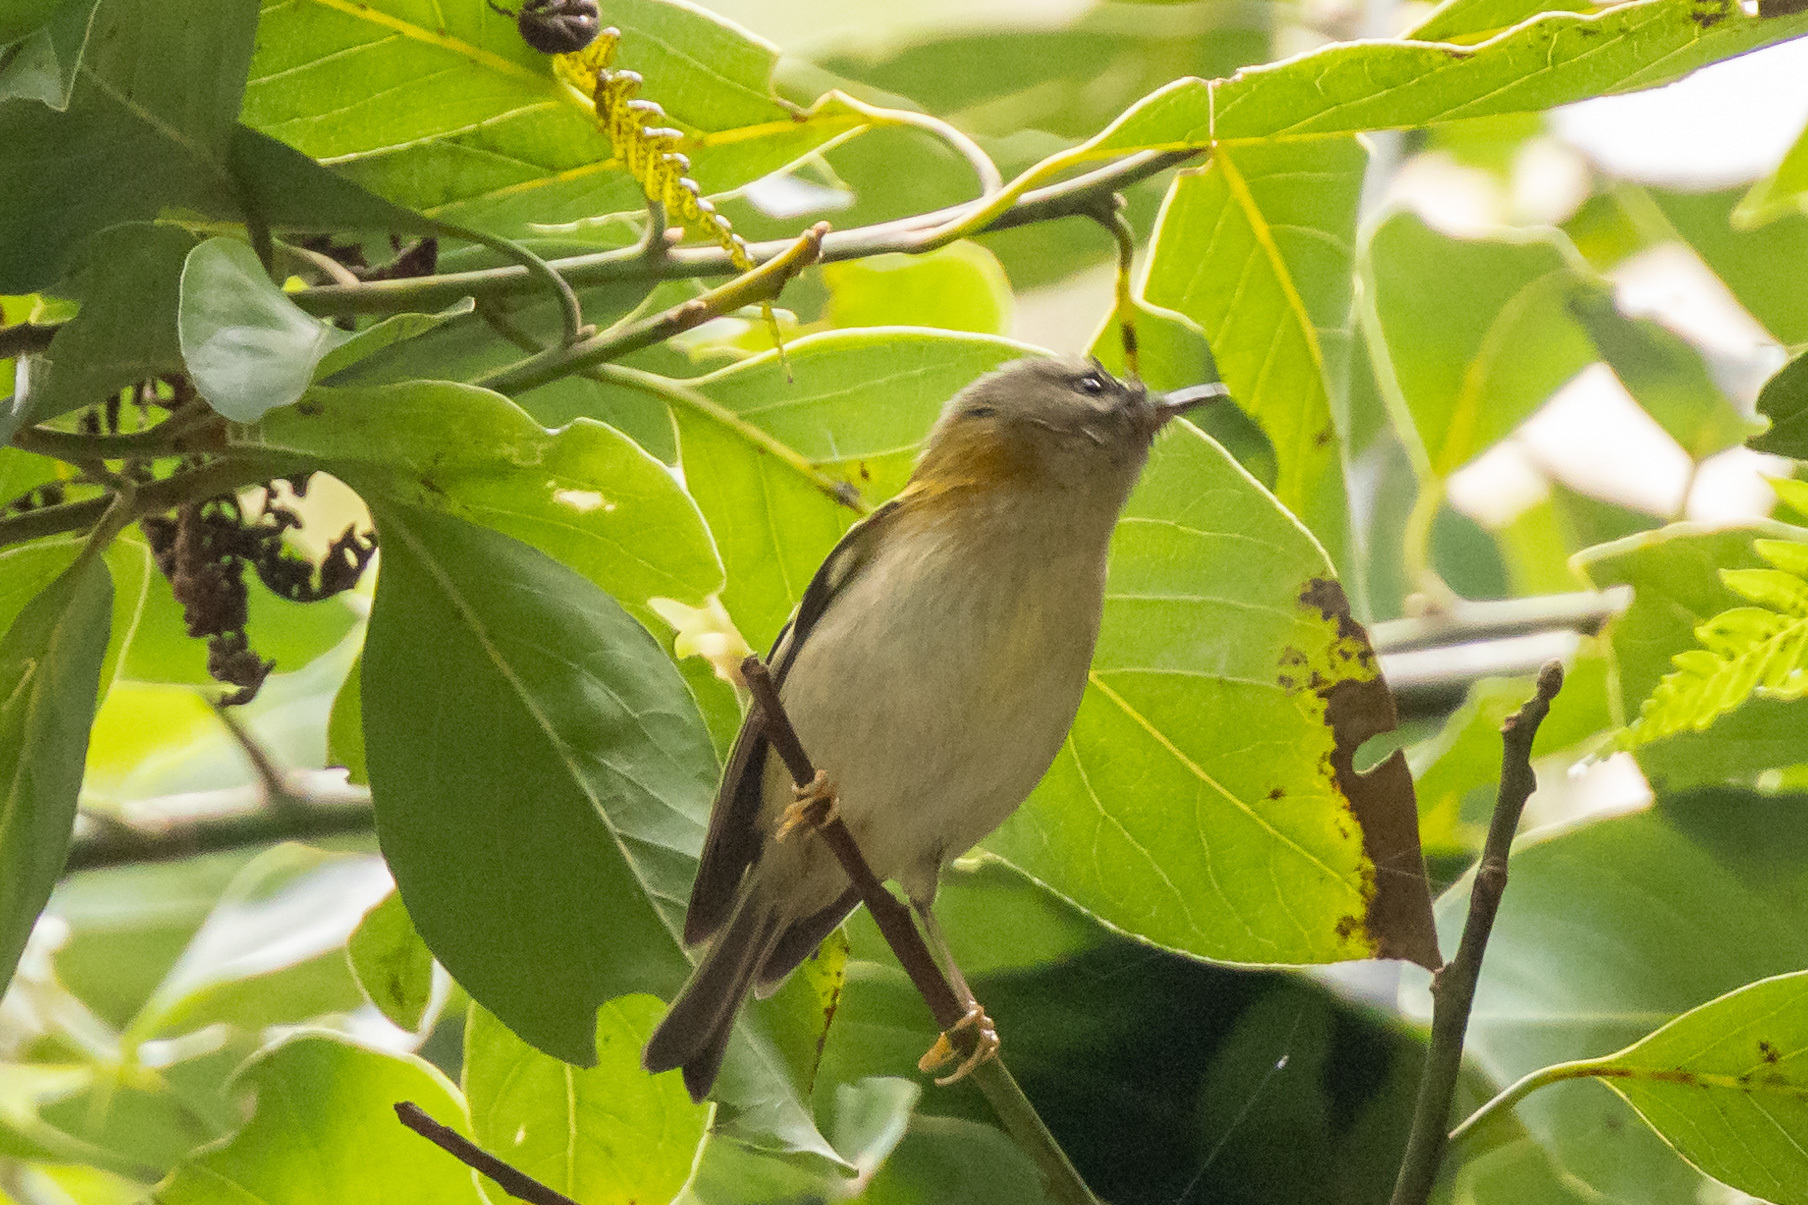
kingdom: Animalia
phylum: Chordata
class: Aves
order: Passeriformes
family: Regulidae
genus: Regulus
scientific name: Regulus madeirensis
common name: Madeira firecrest
